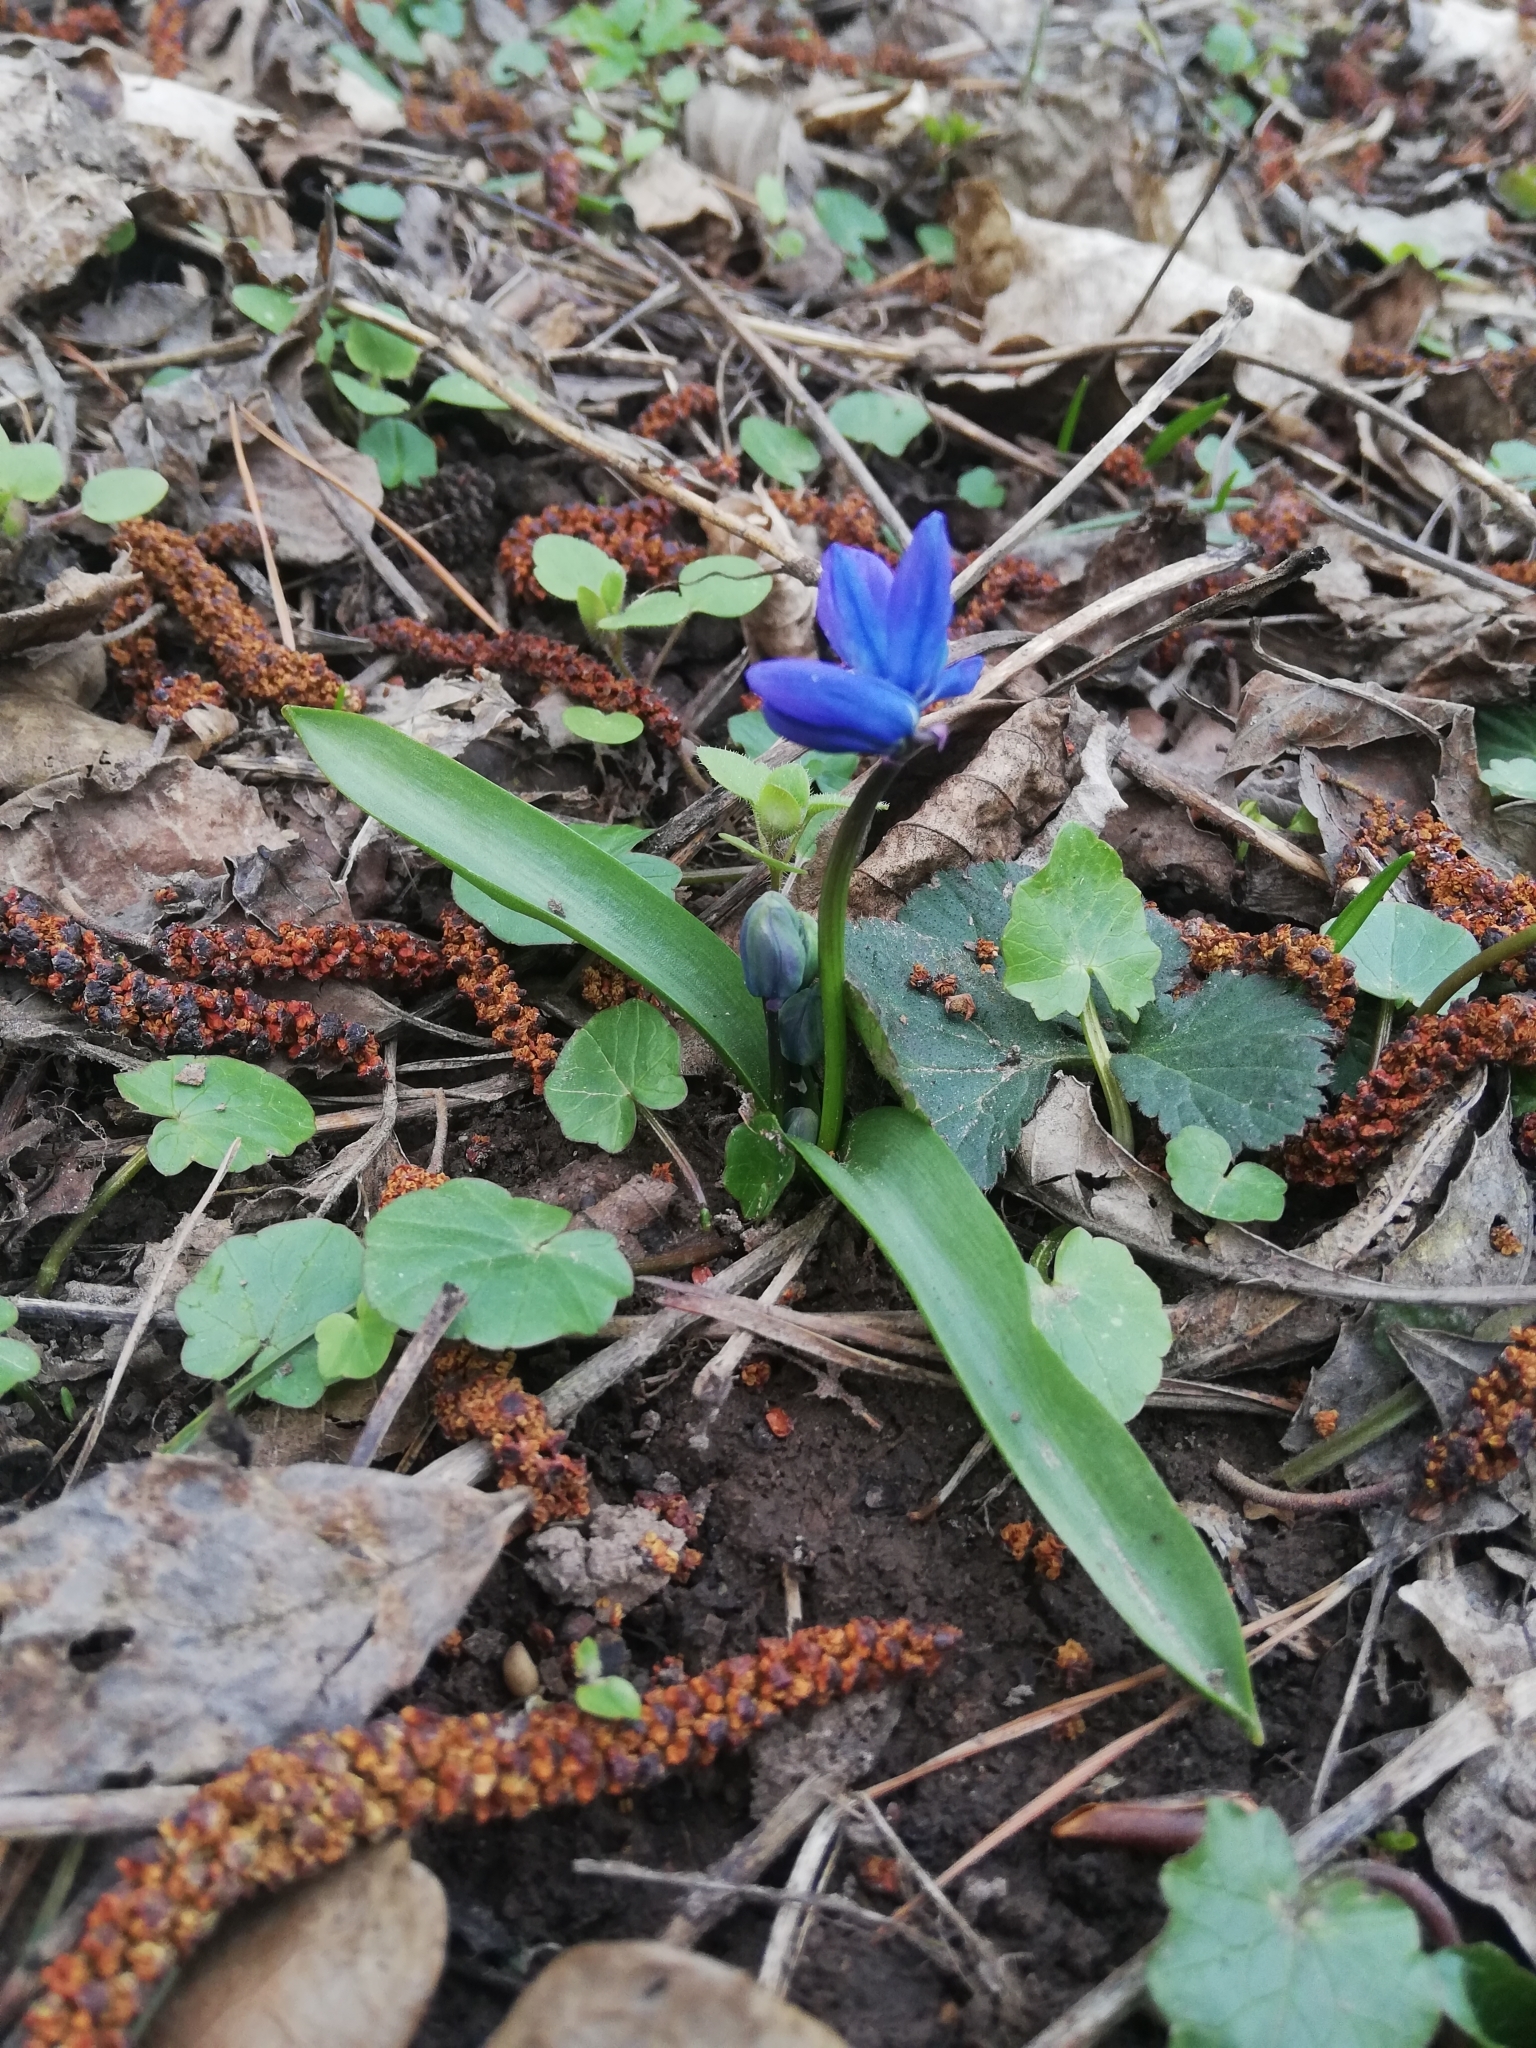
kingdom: Plantae
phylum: Tracheophyta
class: Liliopsida
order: Asparagales
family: Asparagaceae
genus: Scilla
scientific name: Scilla siberica
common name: Siberian squill
